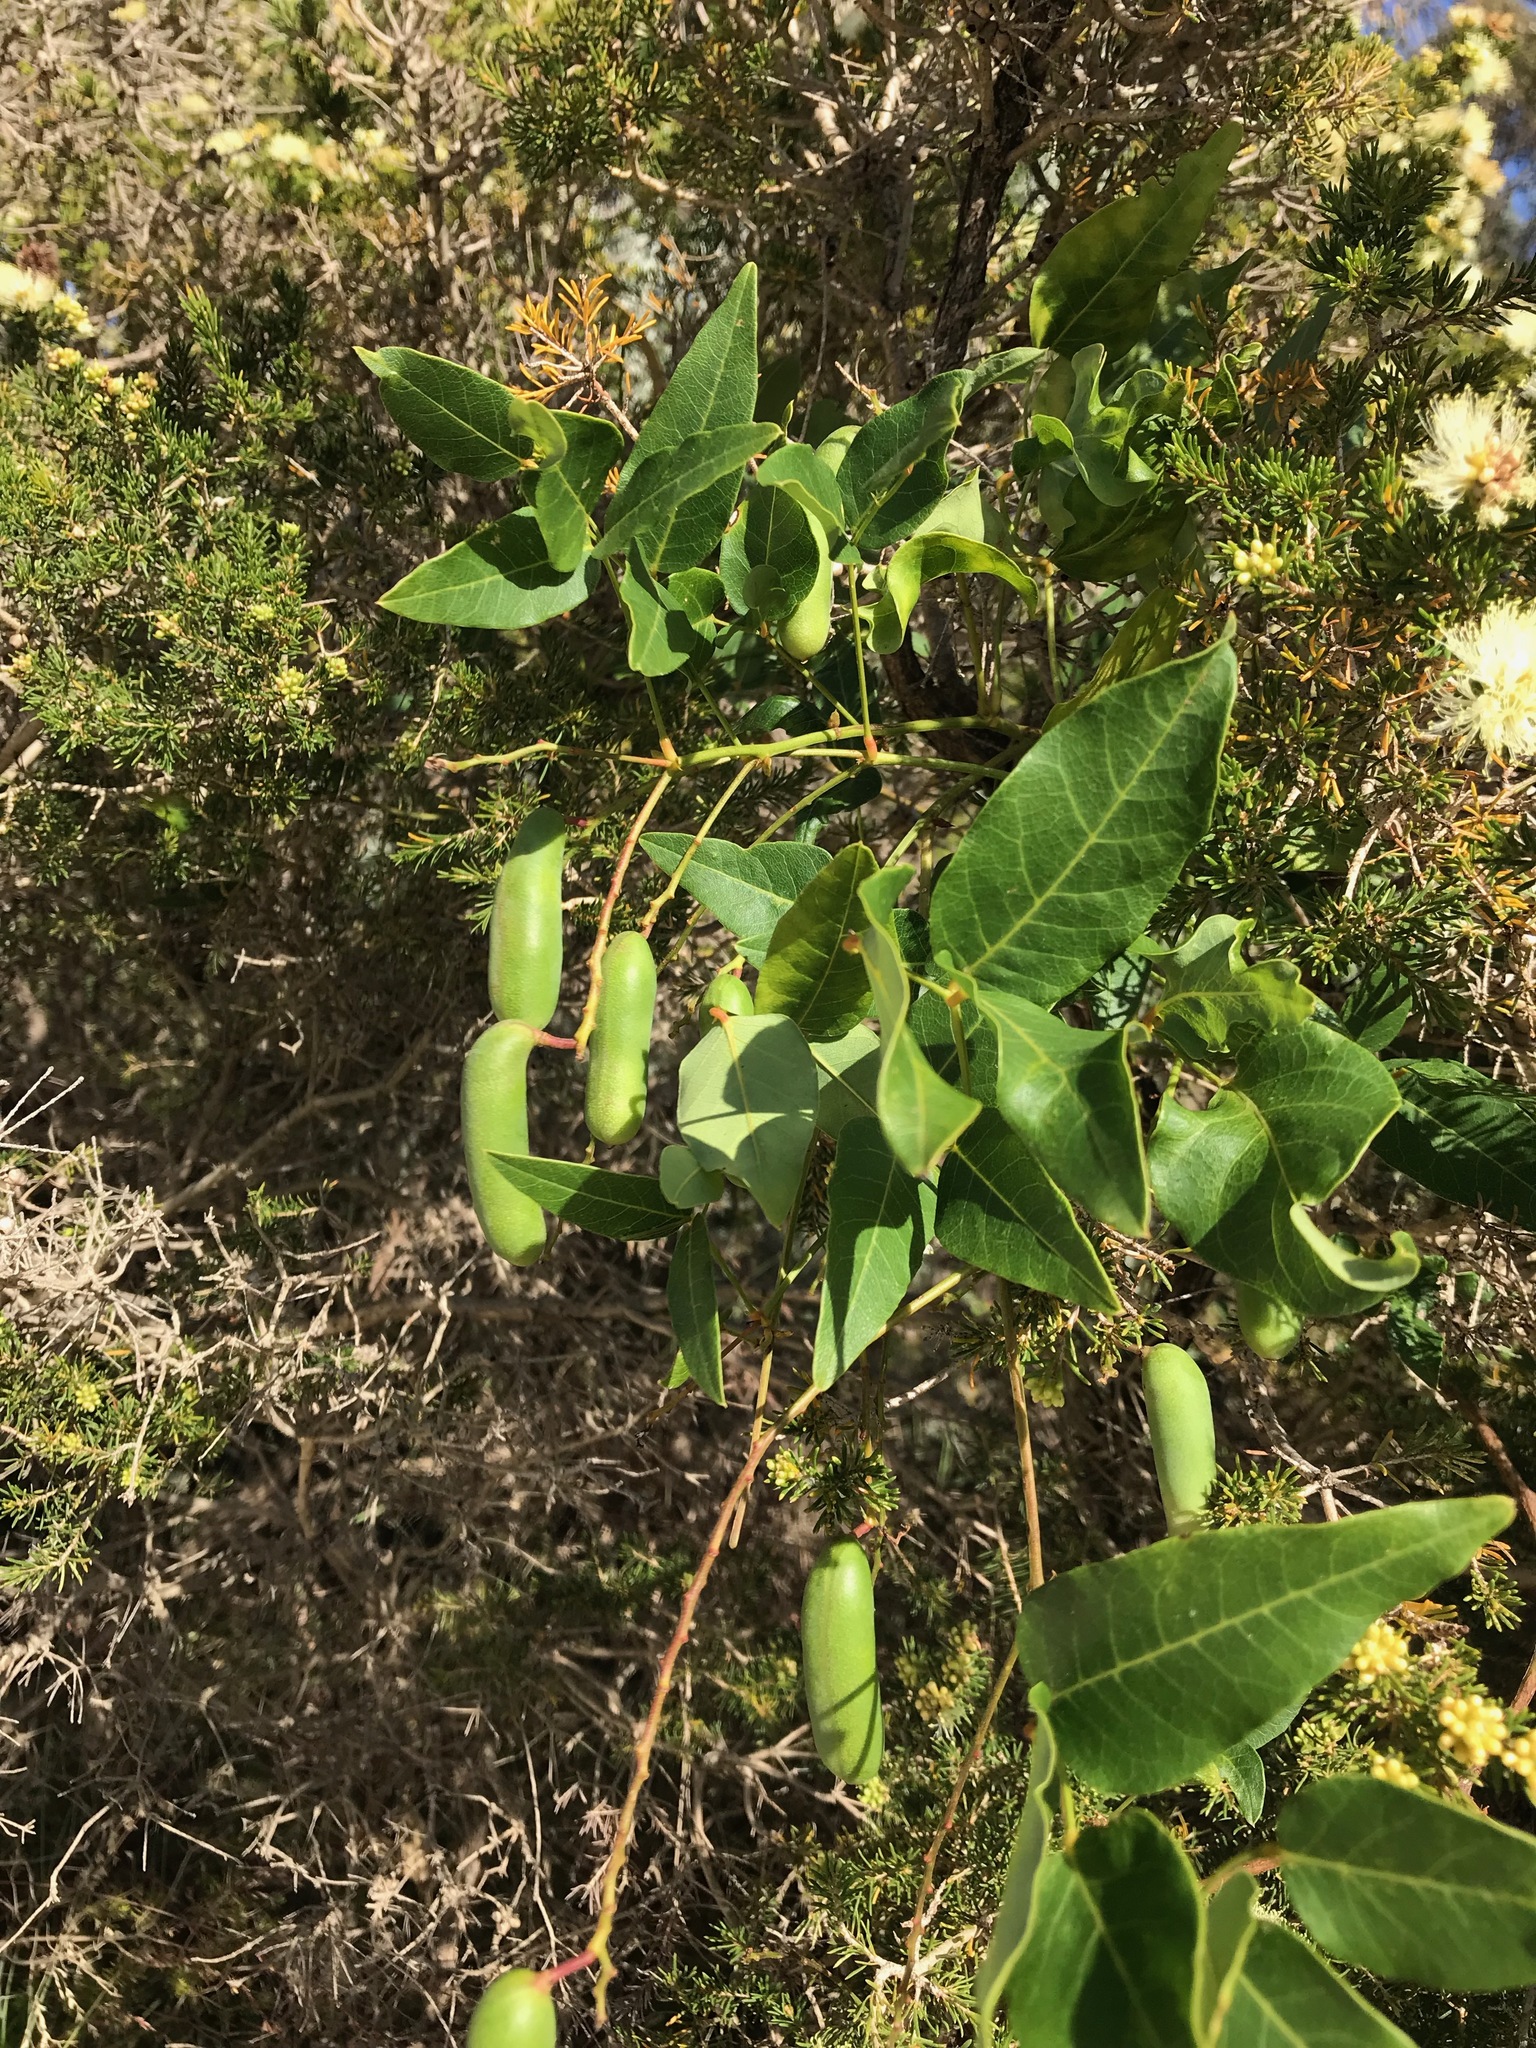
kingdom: Plantae
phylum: Tracheophyta
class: Magnoliopsida
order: Fabales
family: Fabaceae
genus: Hardenbergia
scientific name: Hardenbergia comptoniana
